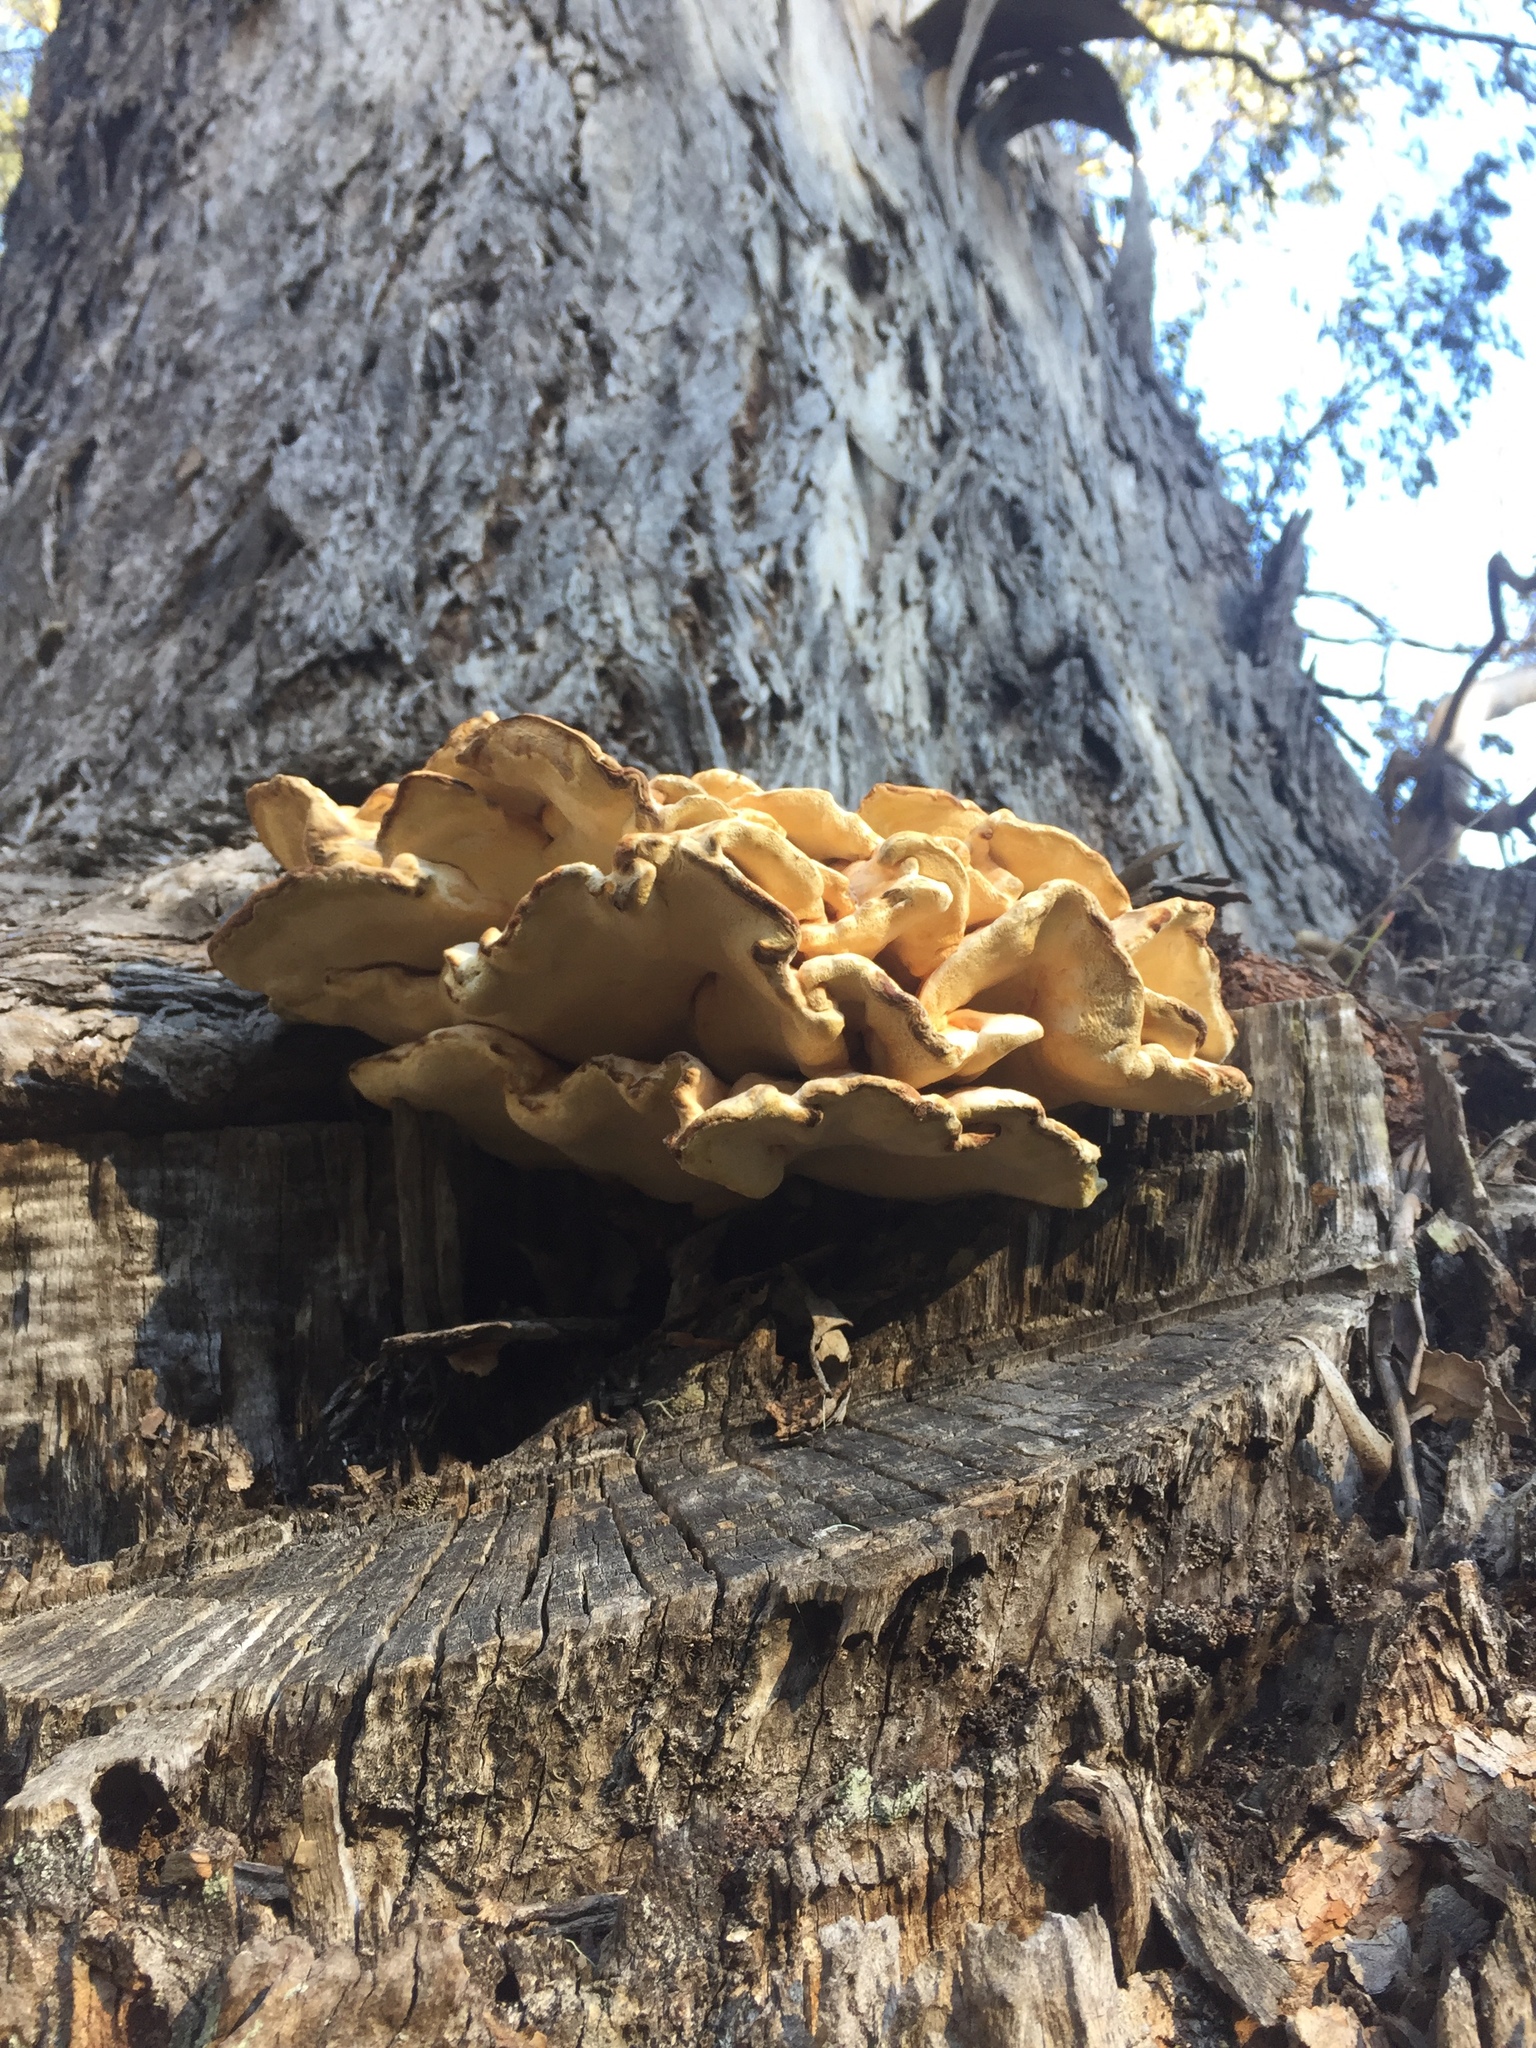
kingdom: Fungi
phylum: Basidiomycota
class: Agaricomycetes
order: Polyporales
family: Laetiporaceae
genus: Laetiporus
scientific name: Laetiporus gilbertsonii
